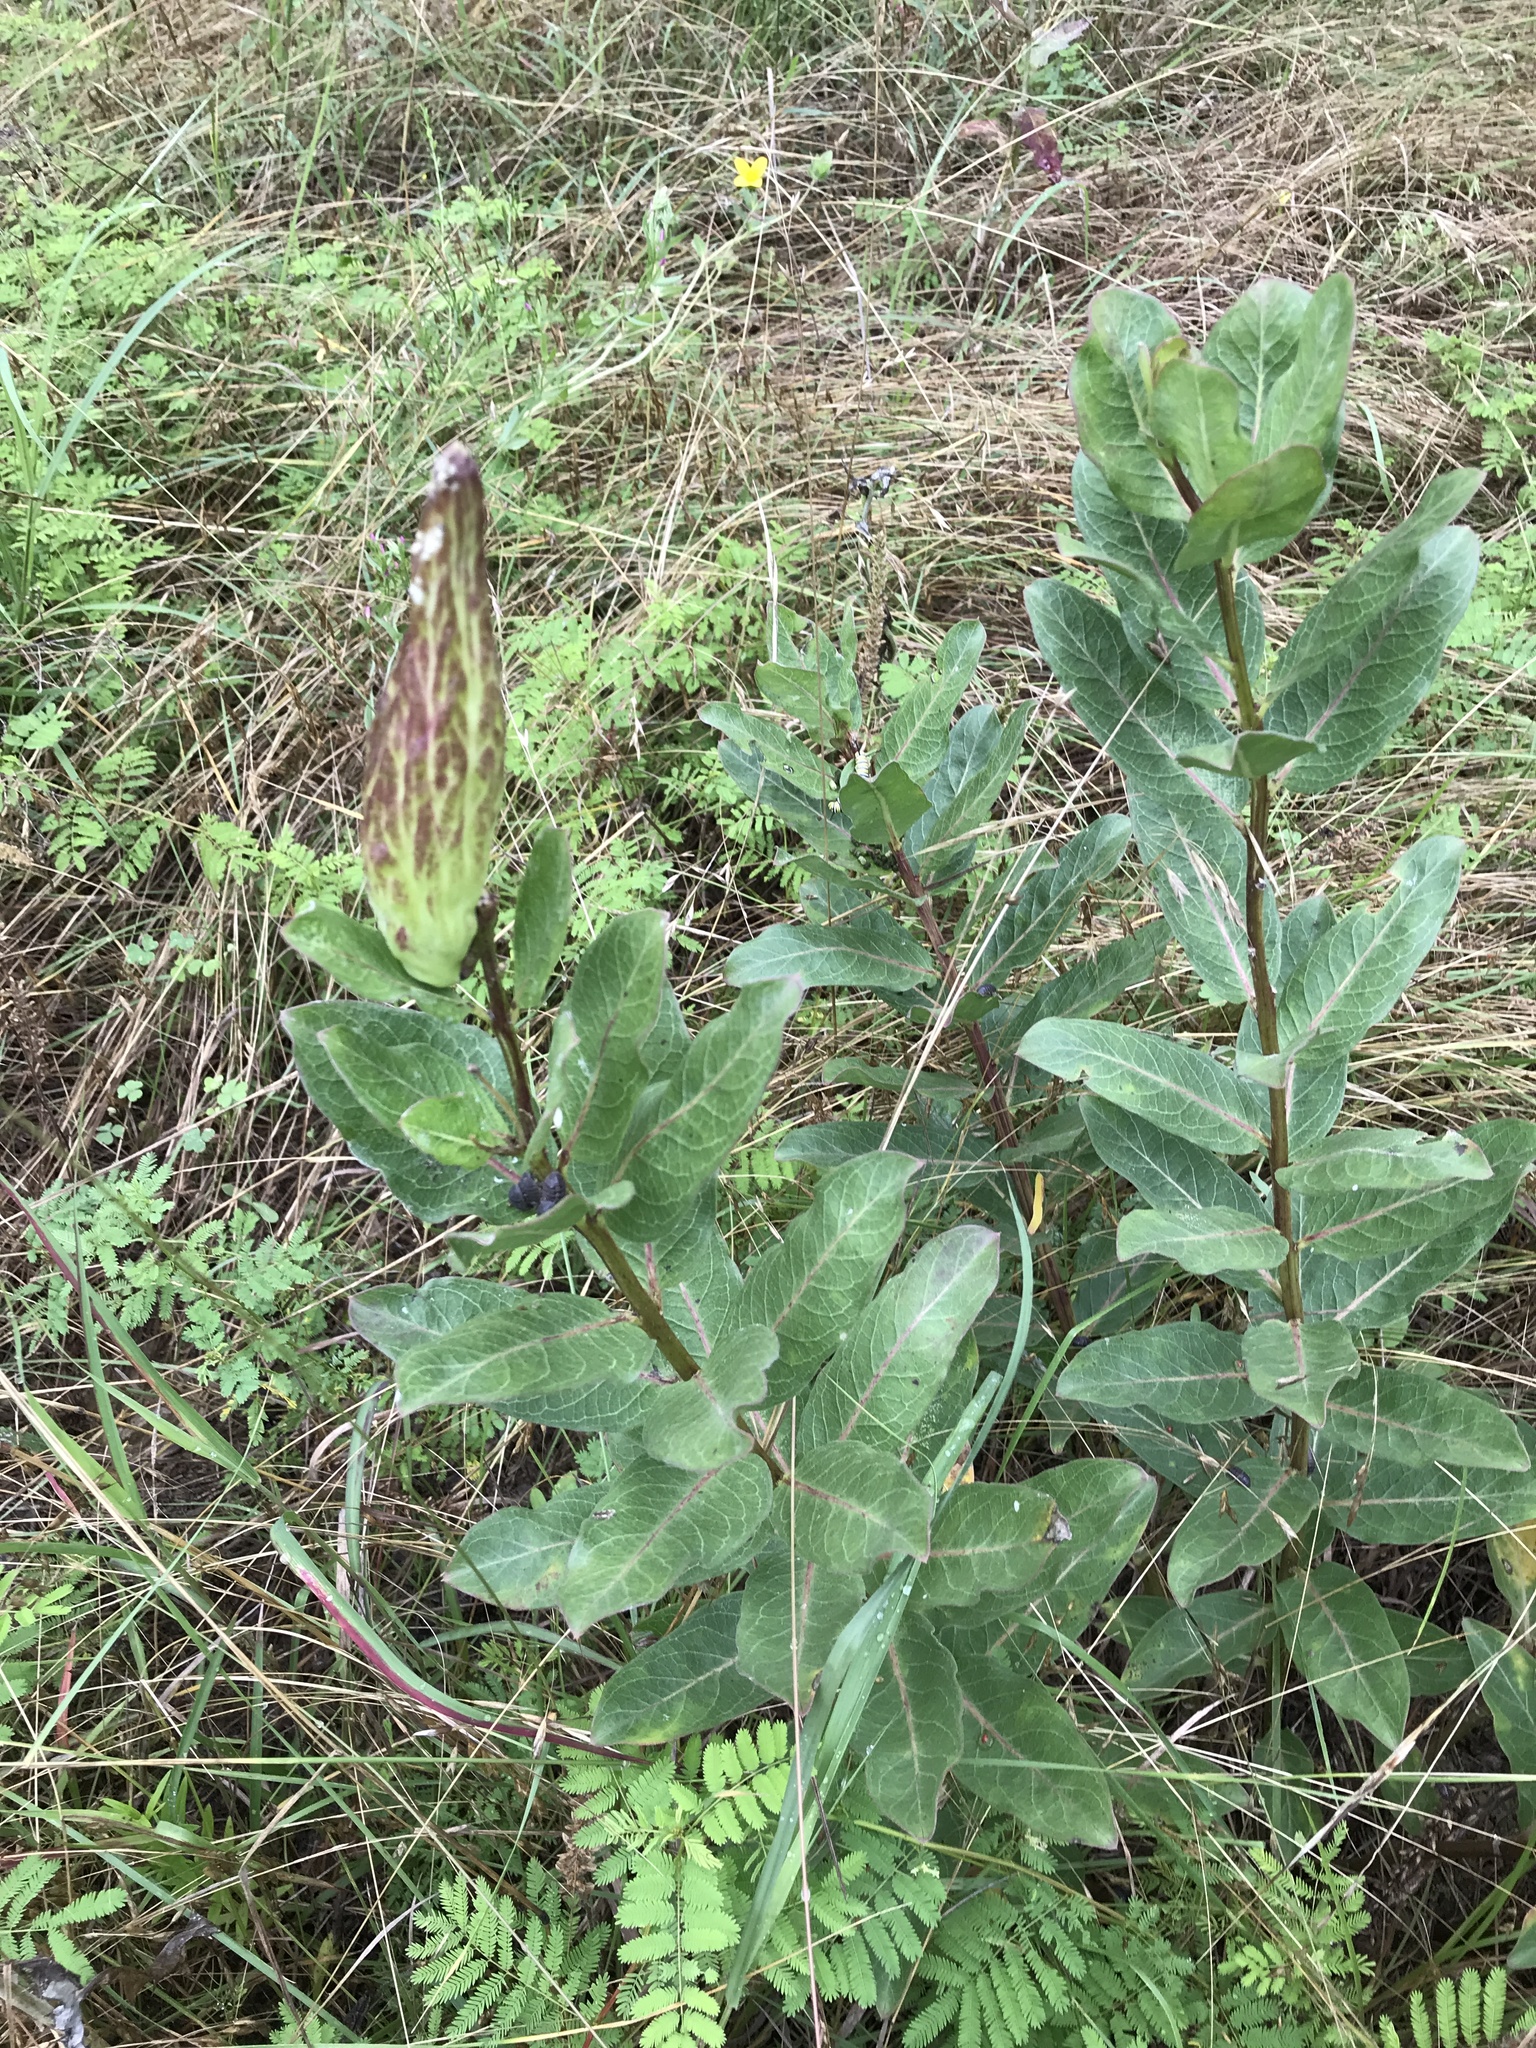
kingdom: Plantae
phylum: Tracheophyta
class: Magnoliopsida
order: Gentianales
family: Apocynaceae
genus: Asclepias
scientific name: Asclepias viridis
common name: Antelope-horns
